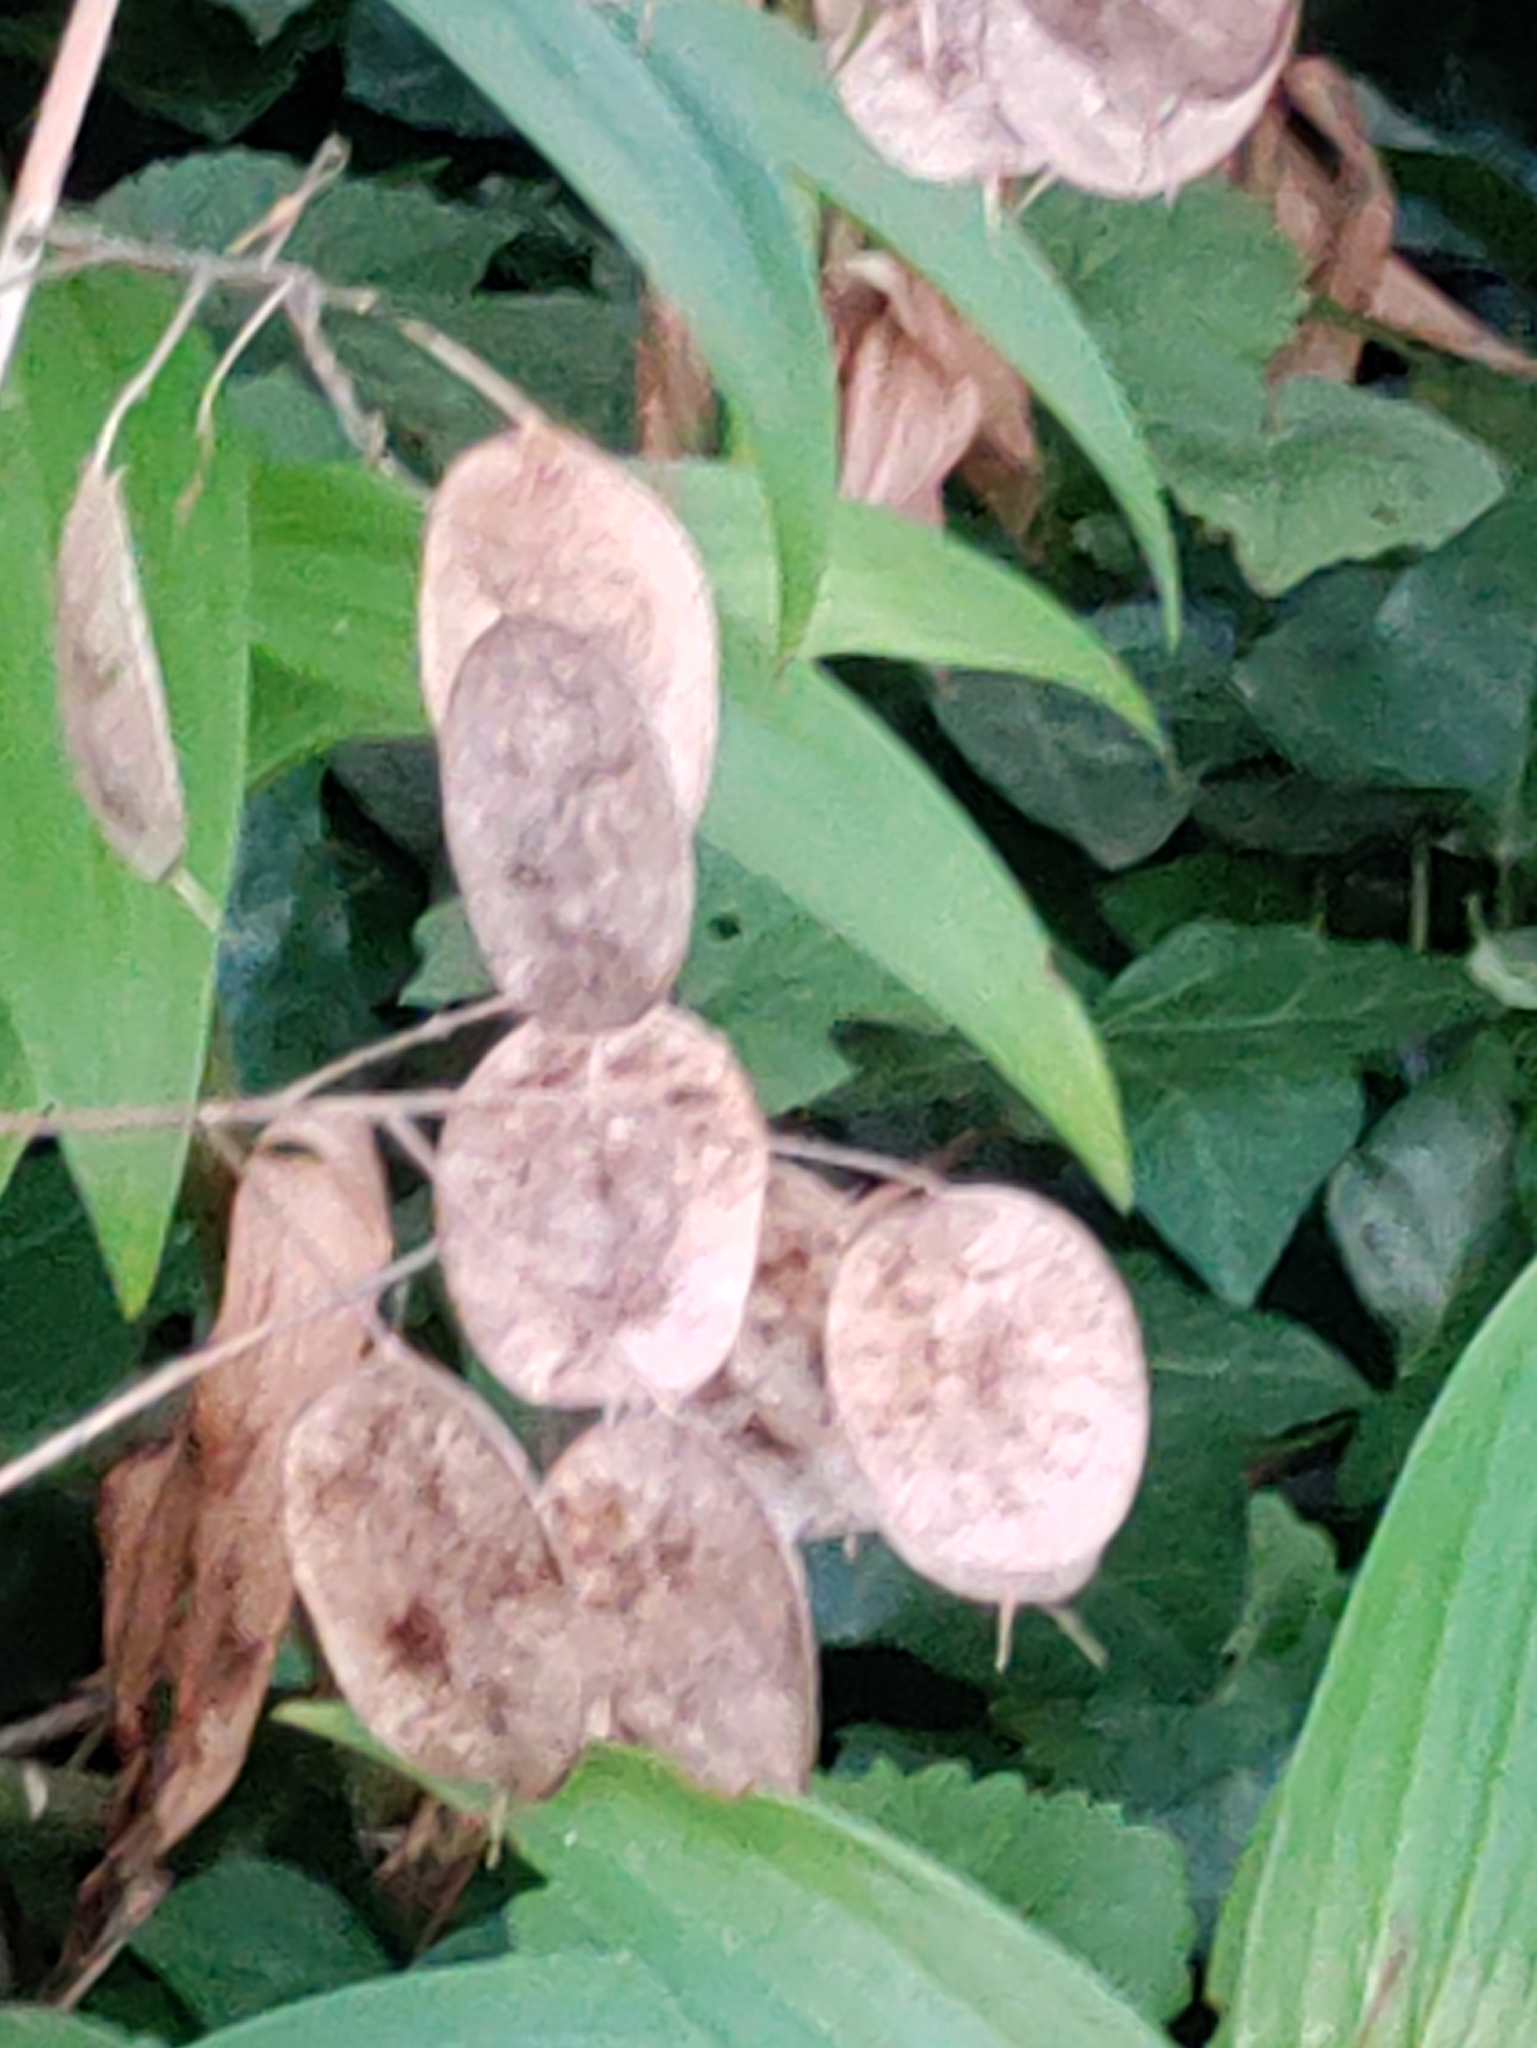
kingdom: Plantae
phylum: Tracheophyta
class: Magnoliopsida
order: Brassicales
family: Brassicaceae
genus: Lunaria
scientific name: Lunaria annua
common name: Honesty
